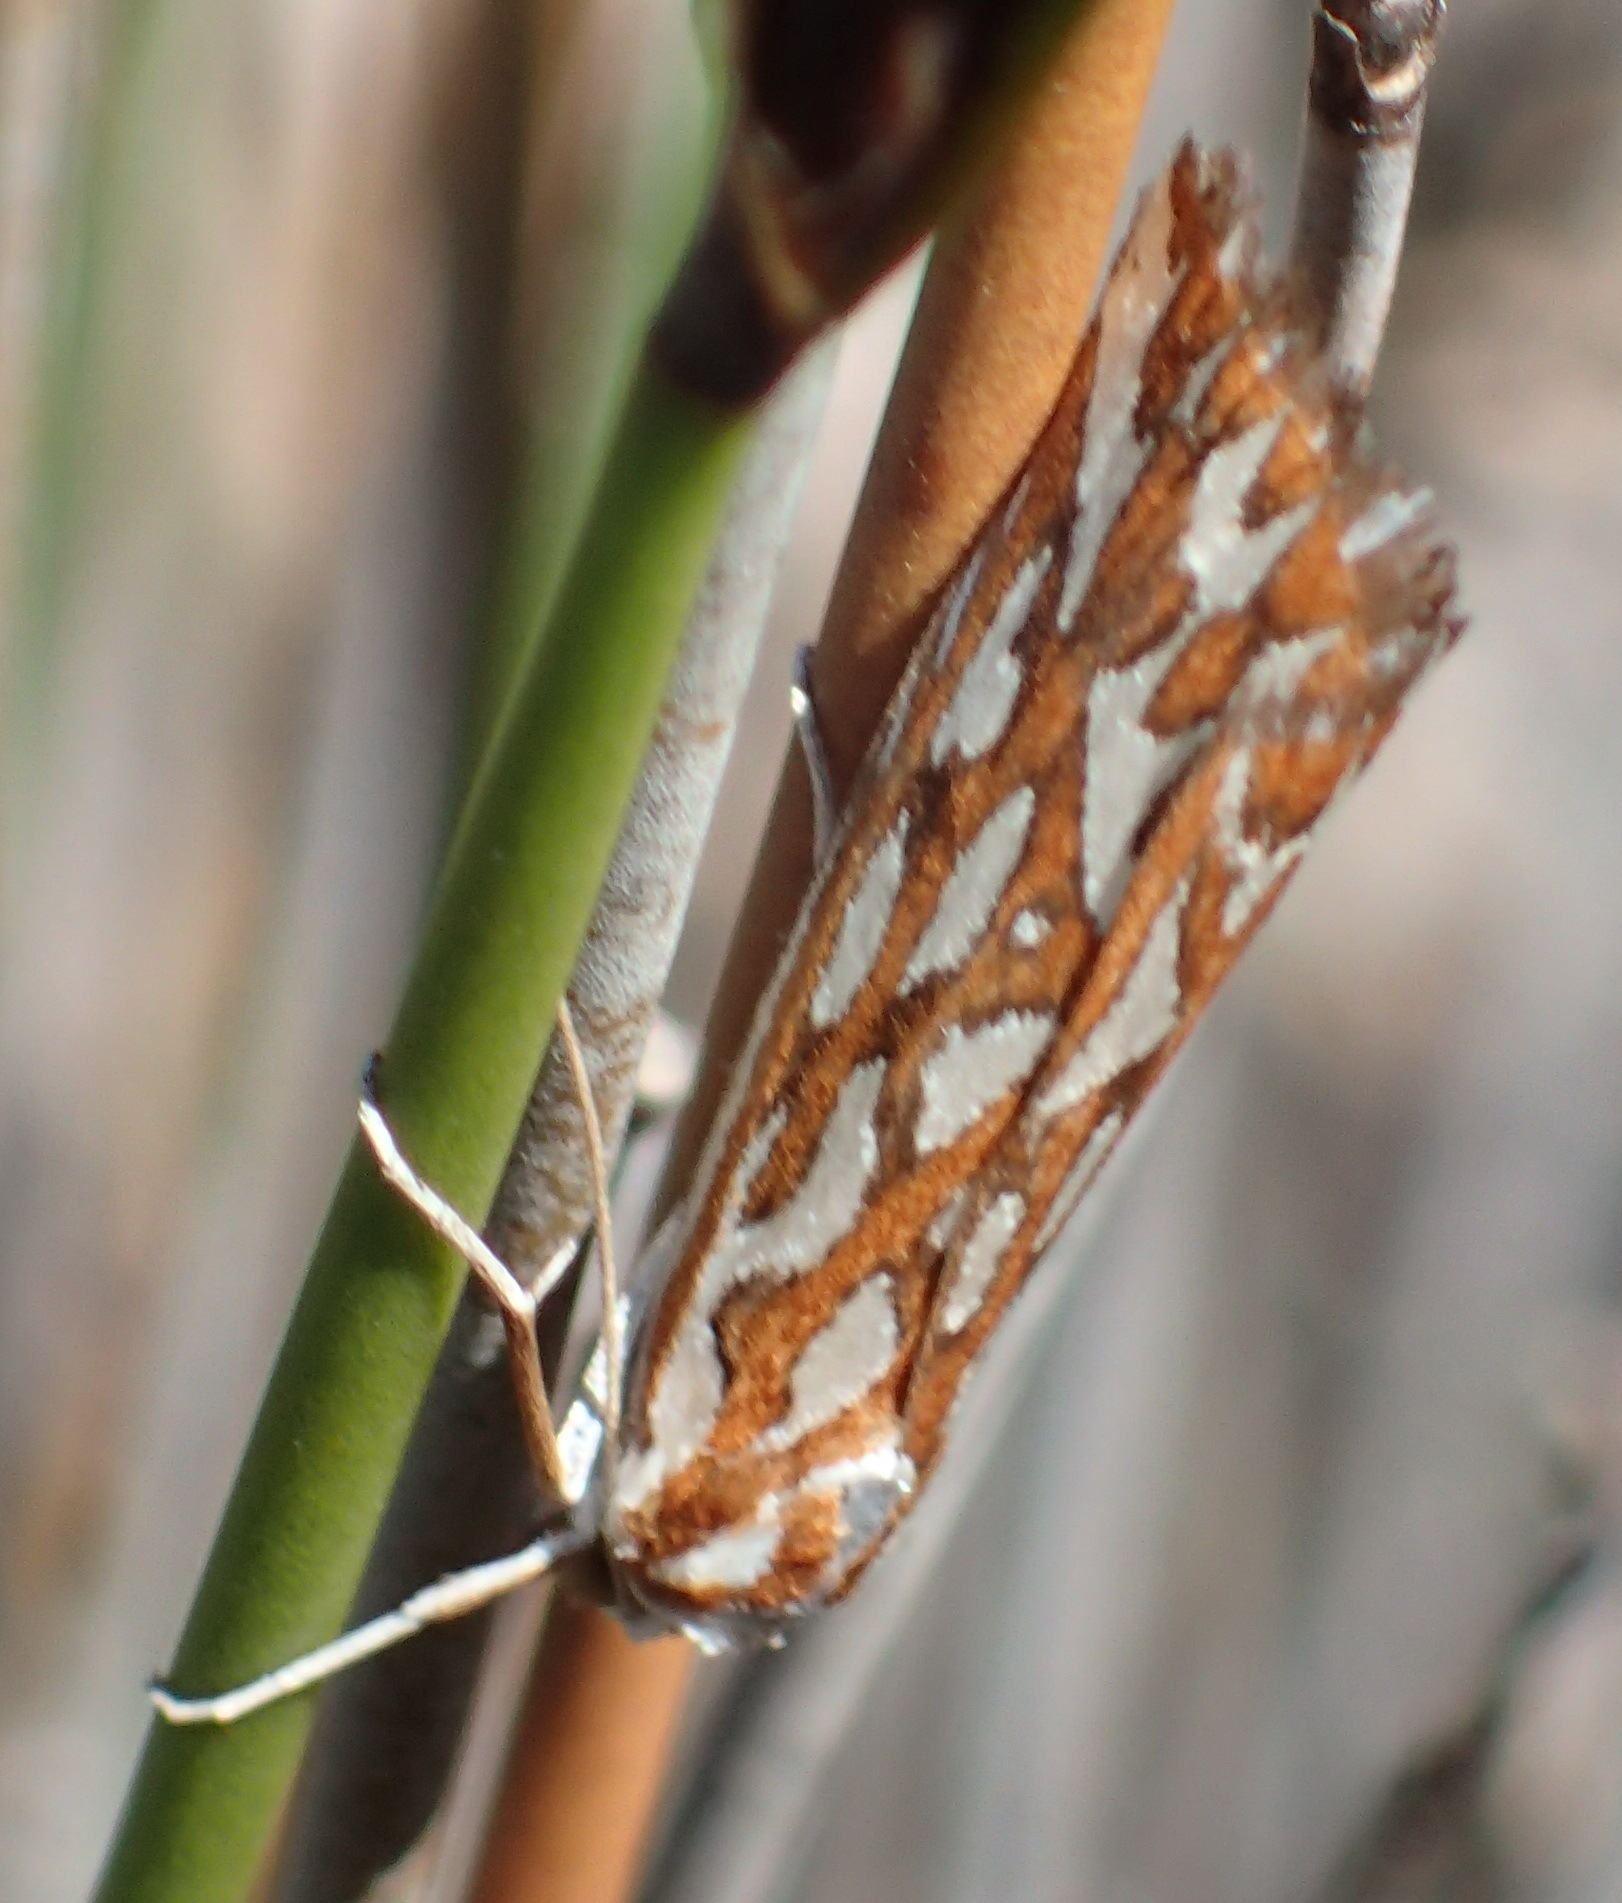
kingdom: Animalia
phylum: Arthropoda
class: Insecta
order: Lepidoptera
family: Geometridae
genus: Argyrophora
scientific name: Argyrophora trofonia
